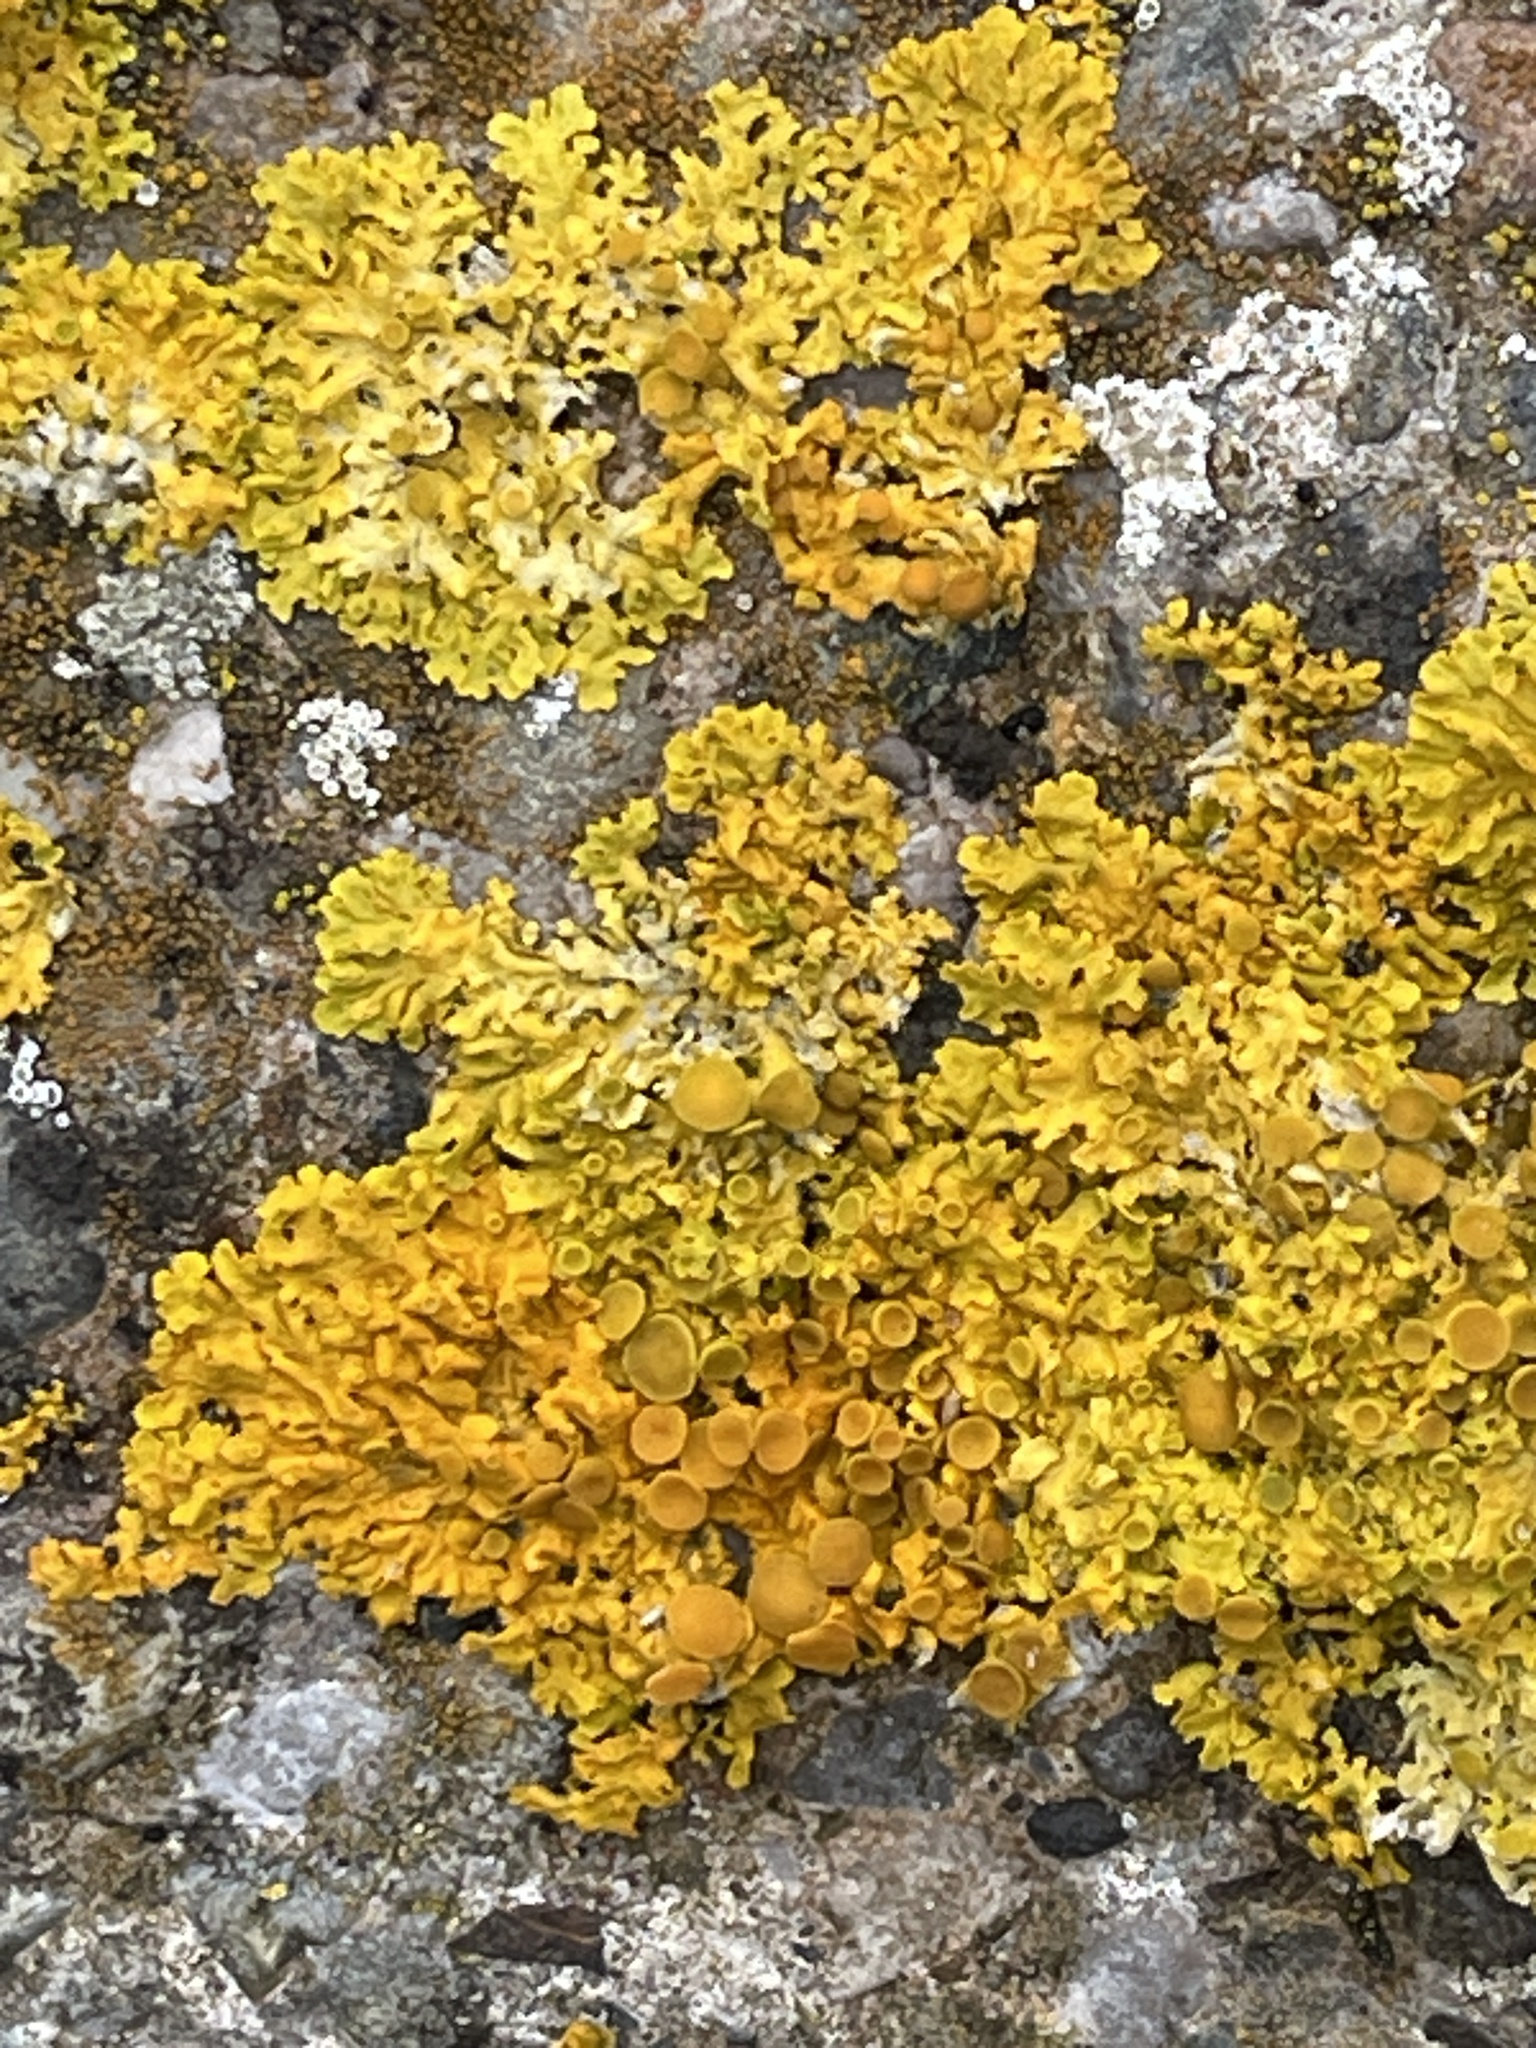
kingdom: Fungi
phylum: Ascomycota
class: Lecanoromycetes
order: Teloschistales
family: Teloschistaceae
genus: Xanthoria
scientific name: Xanthoria parietina
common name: Common orange lichen
